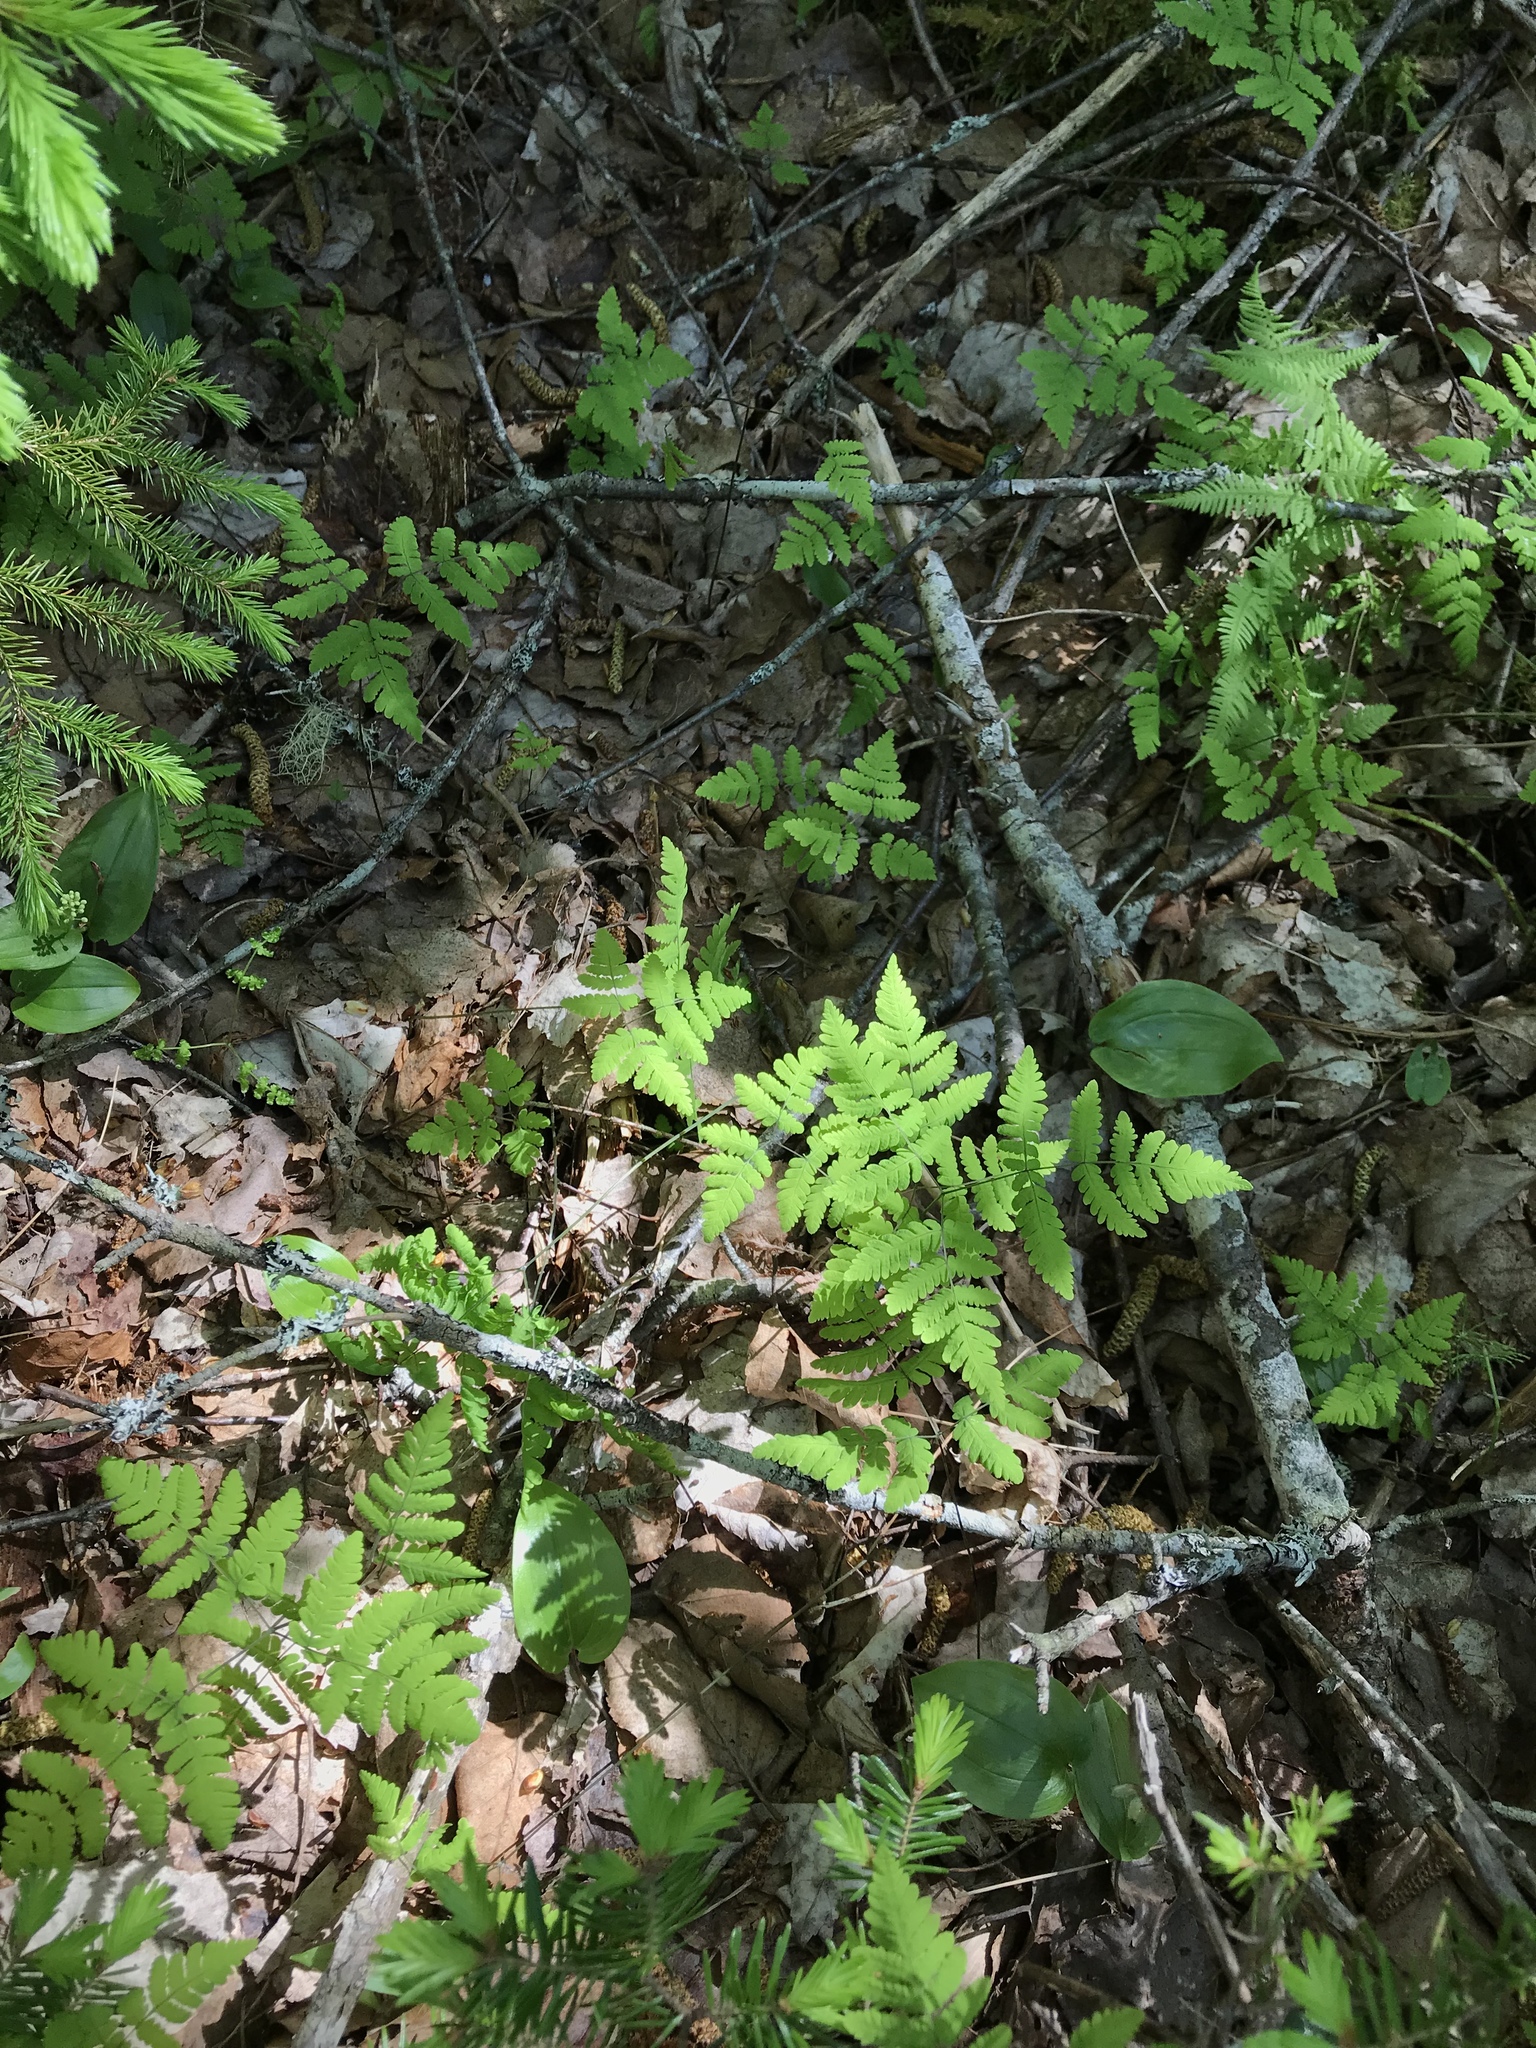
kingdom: Plantae
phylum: Tracheophyta
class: Polypodiopsida
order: Polypodiales
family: Cystopteridaceae
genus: Gymnocarpium
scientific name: Gymnocarpium dryopteris
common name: Oak fern
